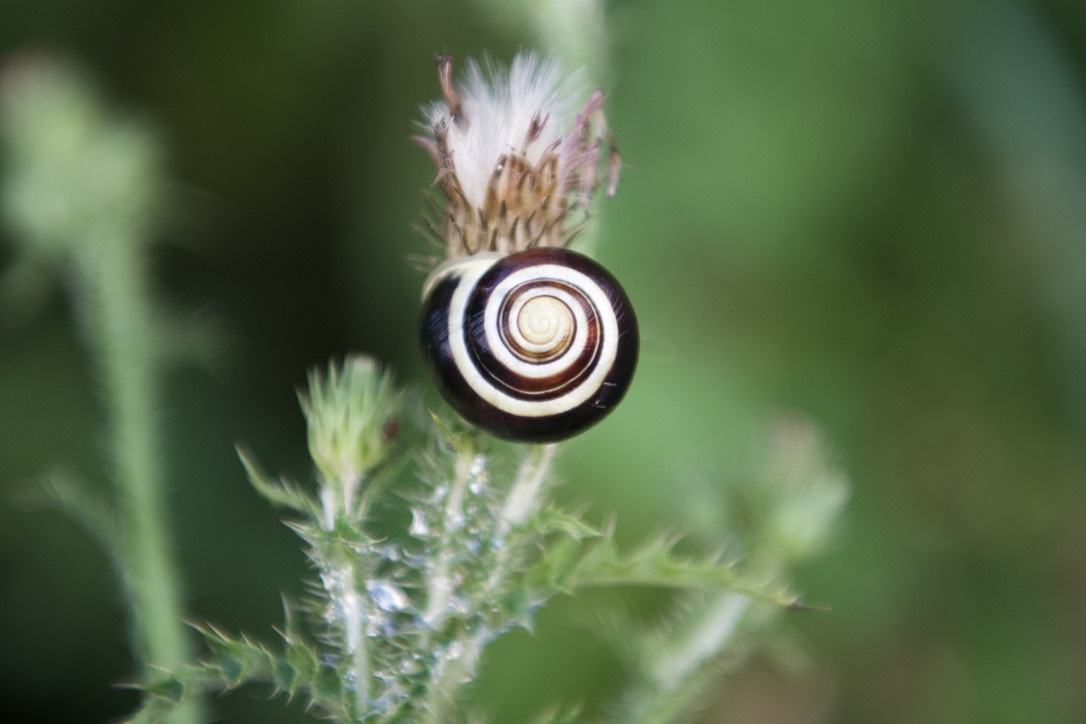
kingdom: Animalia
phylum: Mollusca
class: Gastropoda
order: Stylommatophora
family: Helicidae
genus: Cepaea
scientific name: Cepaea hortensis
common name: White-lip gardensnail
